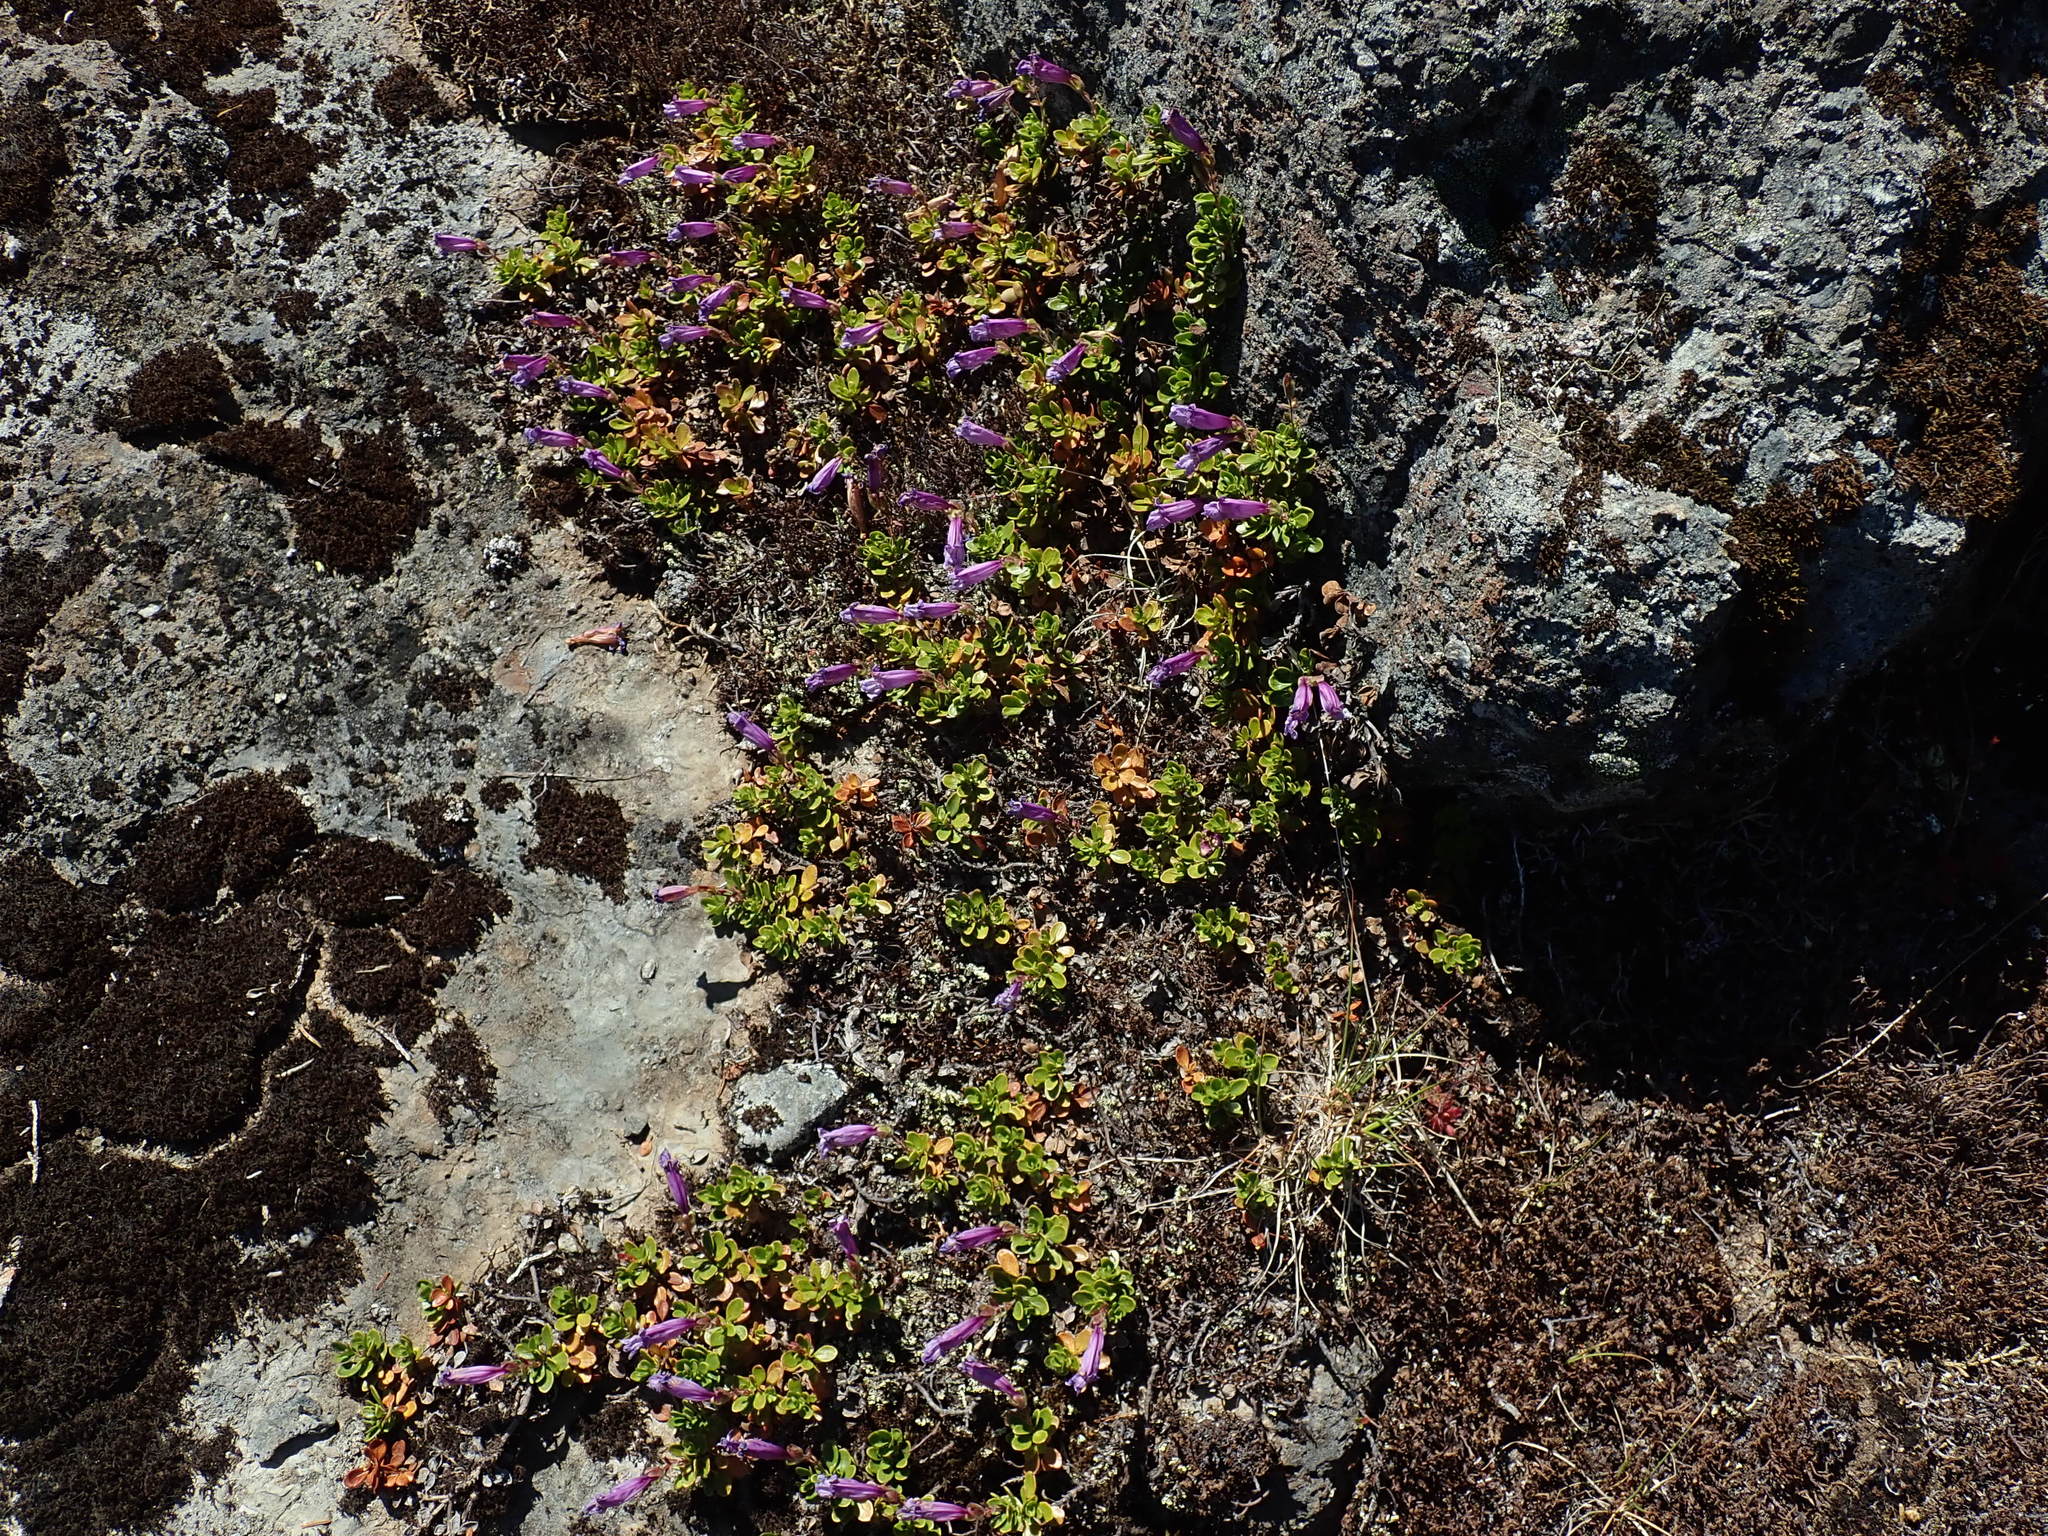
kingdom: Plantae
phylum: Tracheophyta
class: Magnoliopsida
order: Lamiales
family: Plantaginaceae
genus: Penstemon
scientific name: Penstemon davidsonii
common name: Davidson's penstemon
